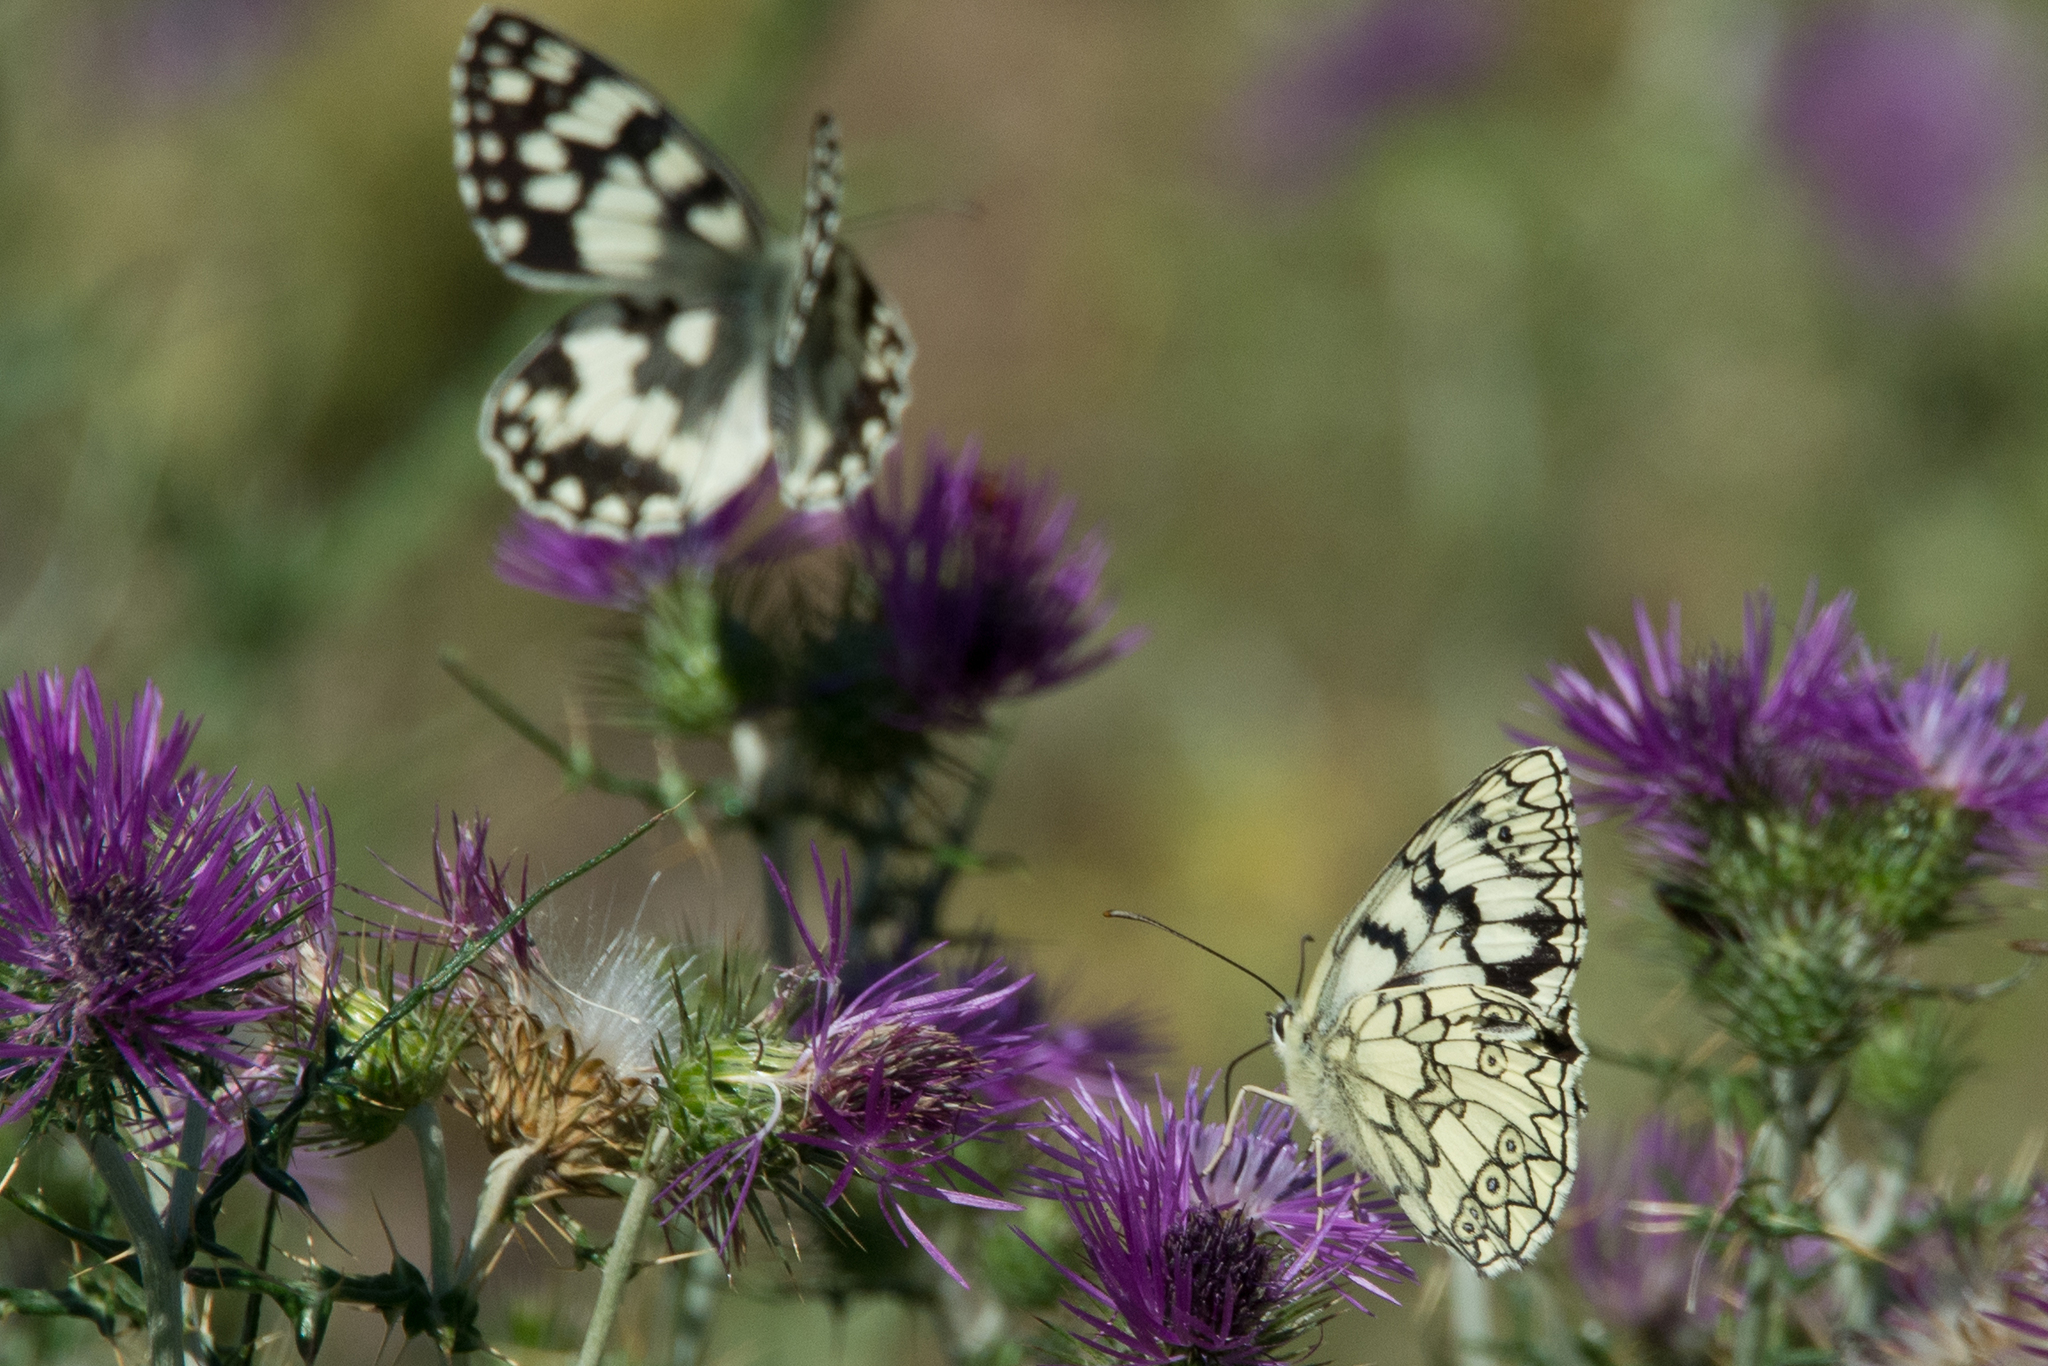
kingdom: Animalia
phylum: Arthropoda
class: Insecta
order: Lepidoptera
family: Nymphalidae
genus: Melanargia
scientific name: Melanargia japygia
